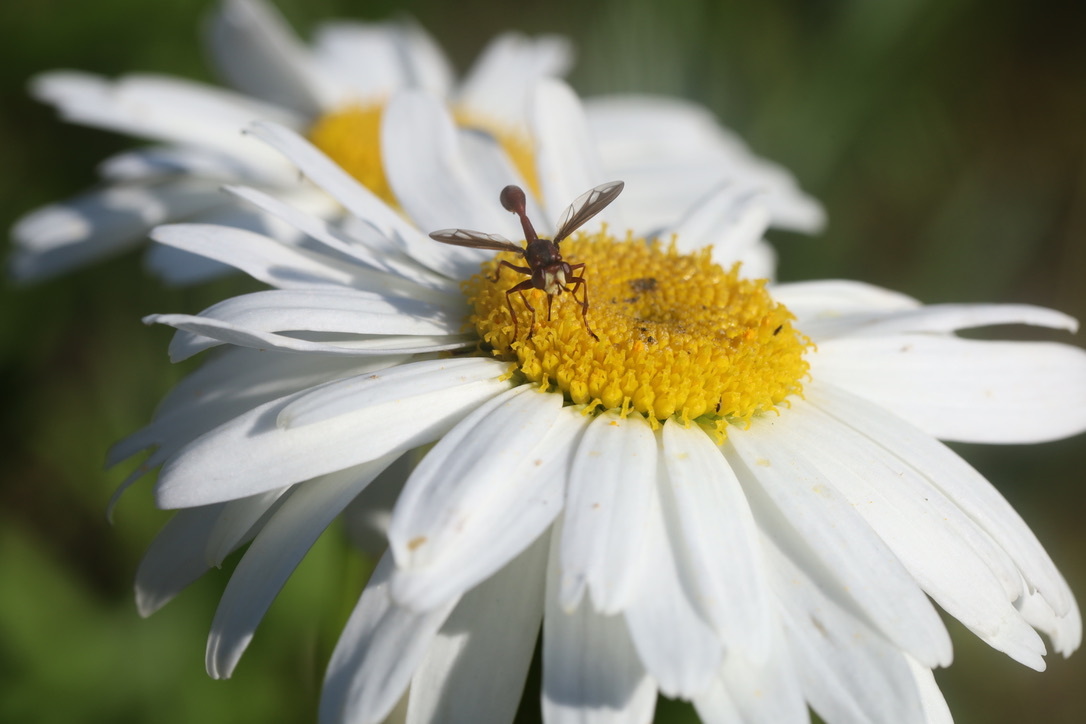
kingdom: Animalia
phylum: Arthropoda
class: Insecta
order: Diptera
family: Conopidae
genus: Physocephala
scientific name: Physocephala burgessi
